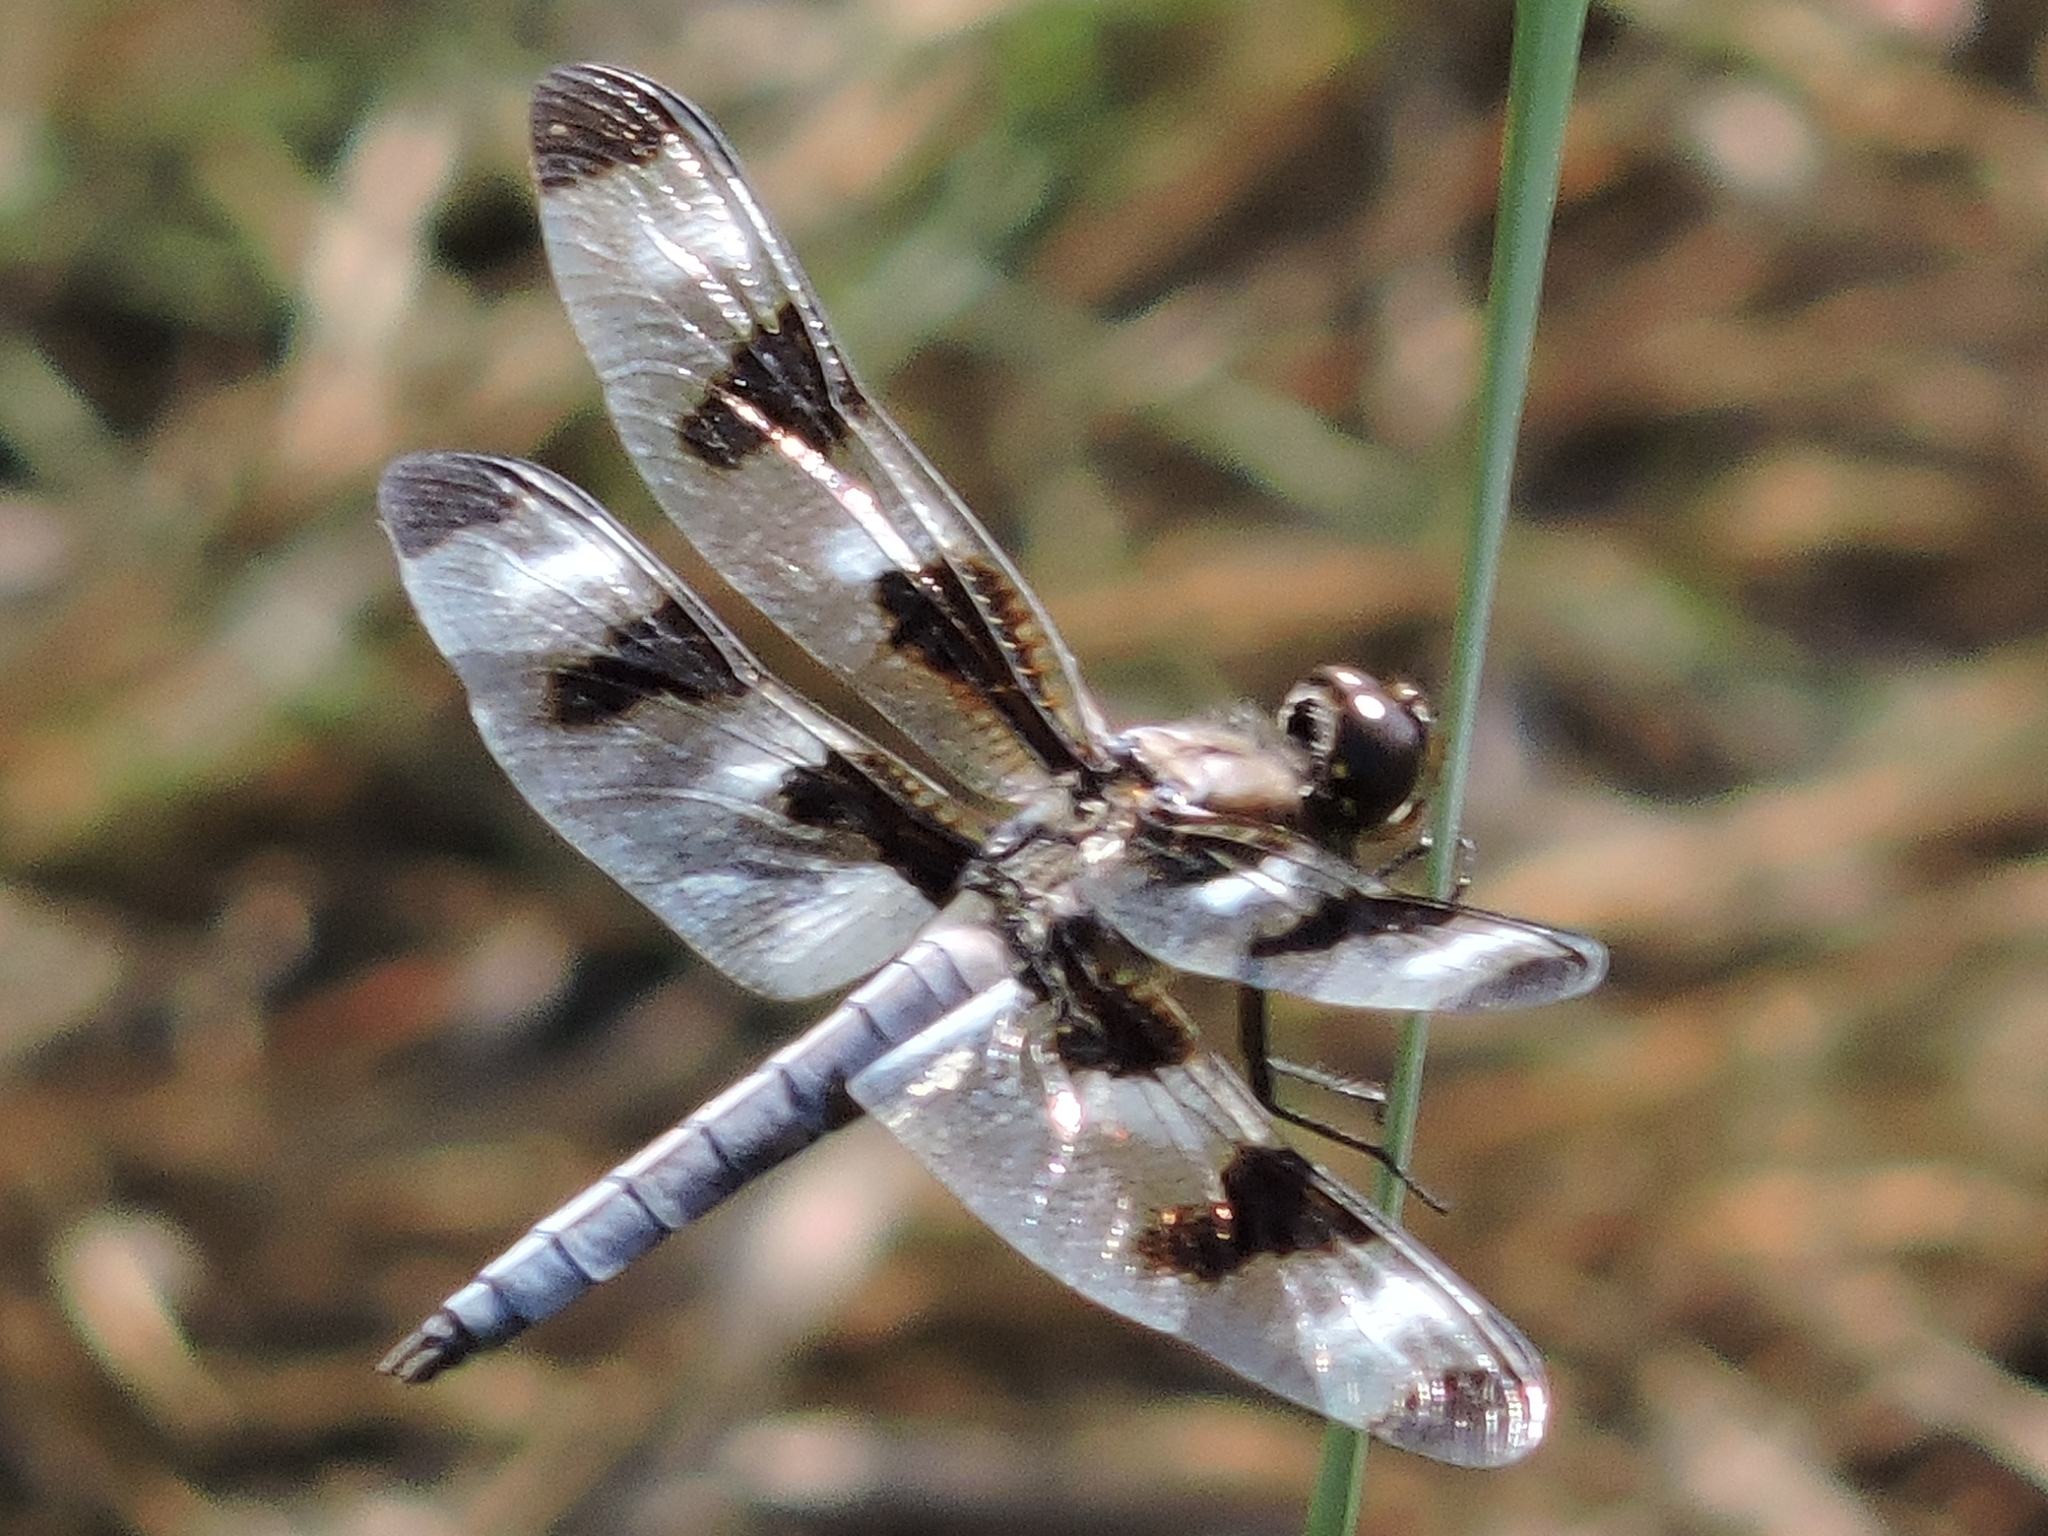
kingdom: Animalia
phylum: Arthropoda
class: Insecta
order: Odonata
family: Libellulidae
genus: Libellula
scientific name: Libellula pulchella
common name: Twelve-spotted skimmer
